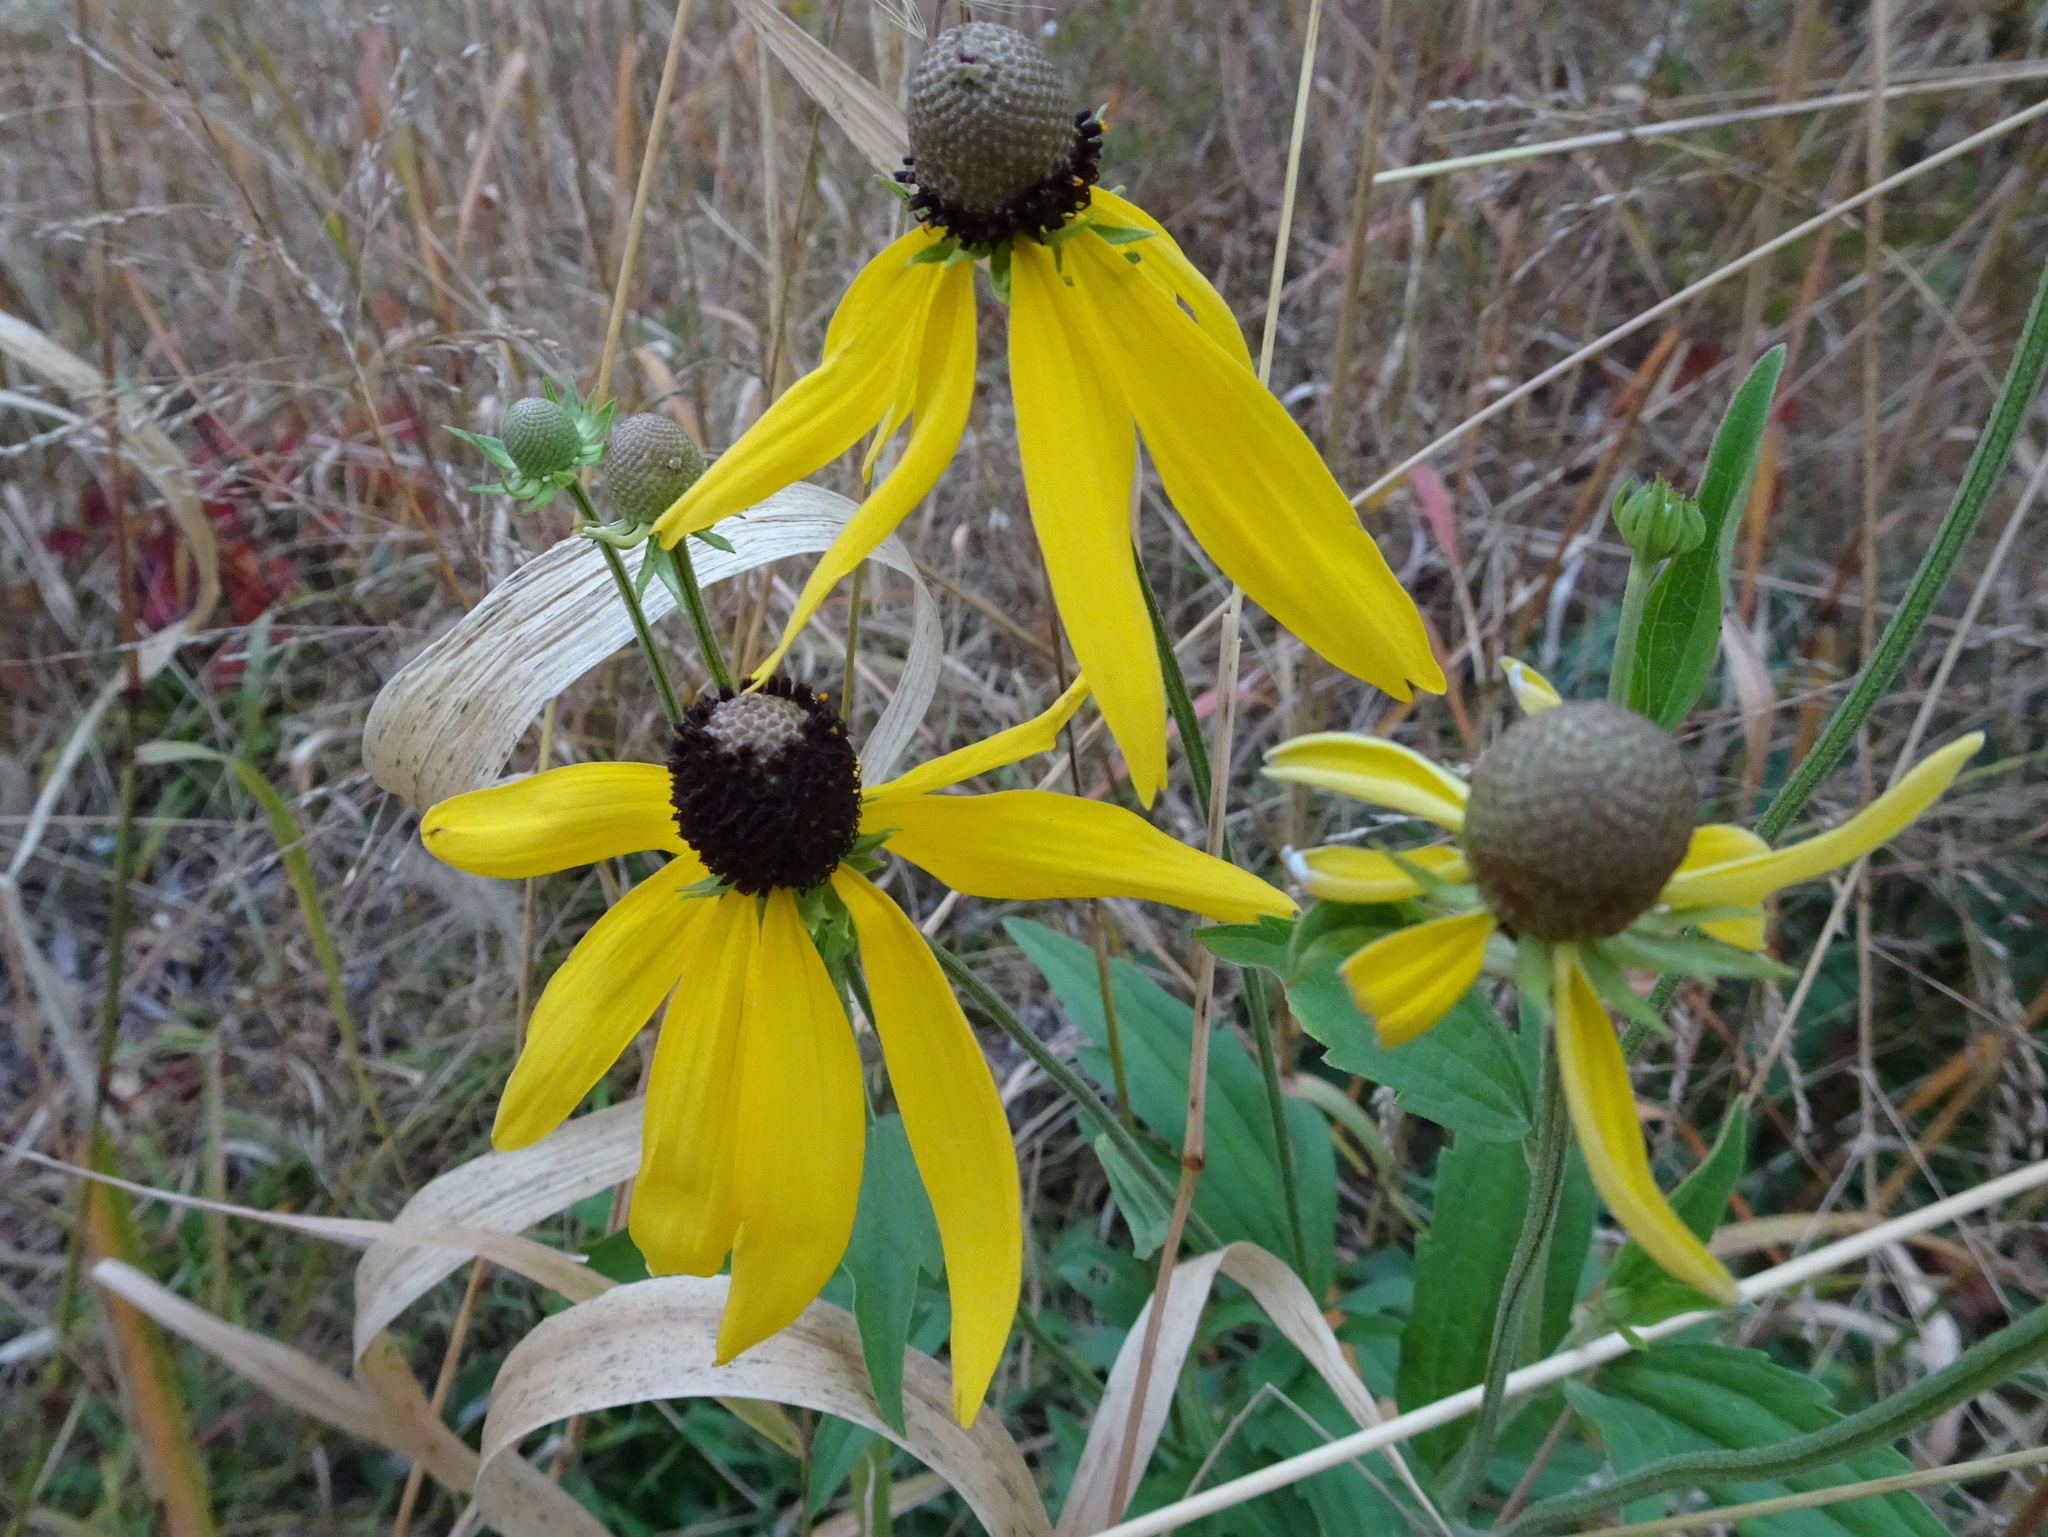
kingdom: Plantae
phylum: Tracheophyta
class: Magnoliopsida
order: Asterales
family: Asteraceae
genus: Ratibida
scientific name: Ratibida pinnata
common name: Drooping prairie-coneflower
